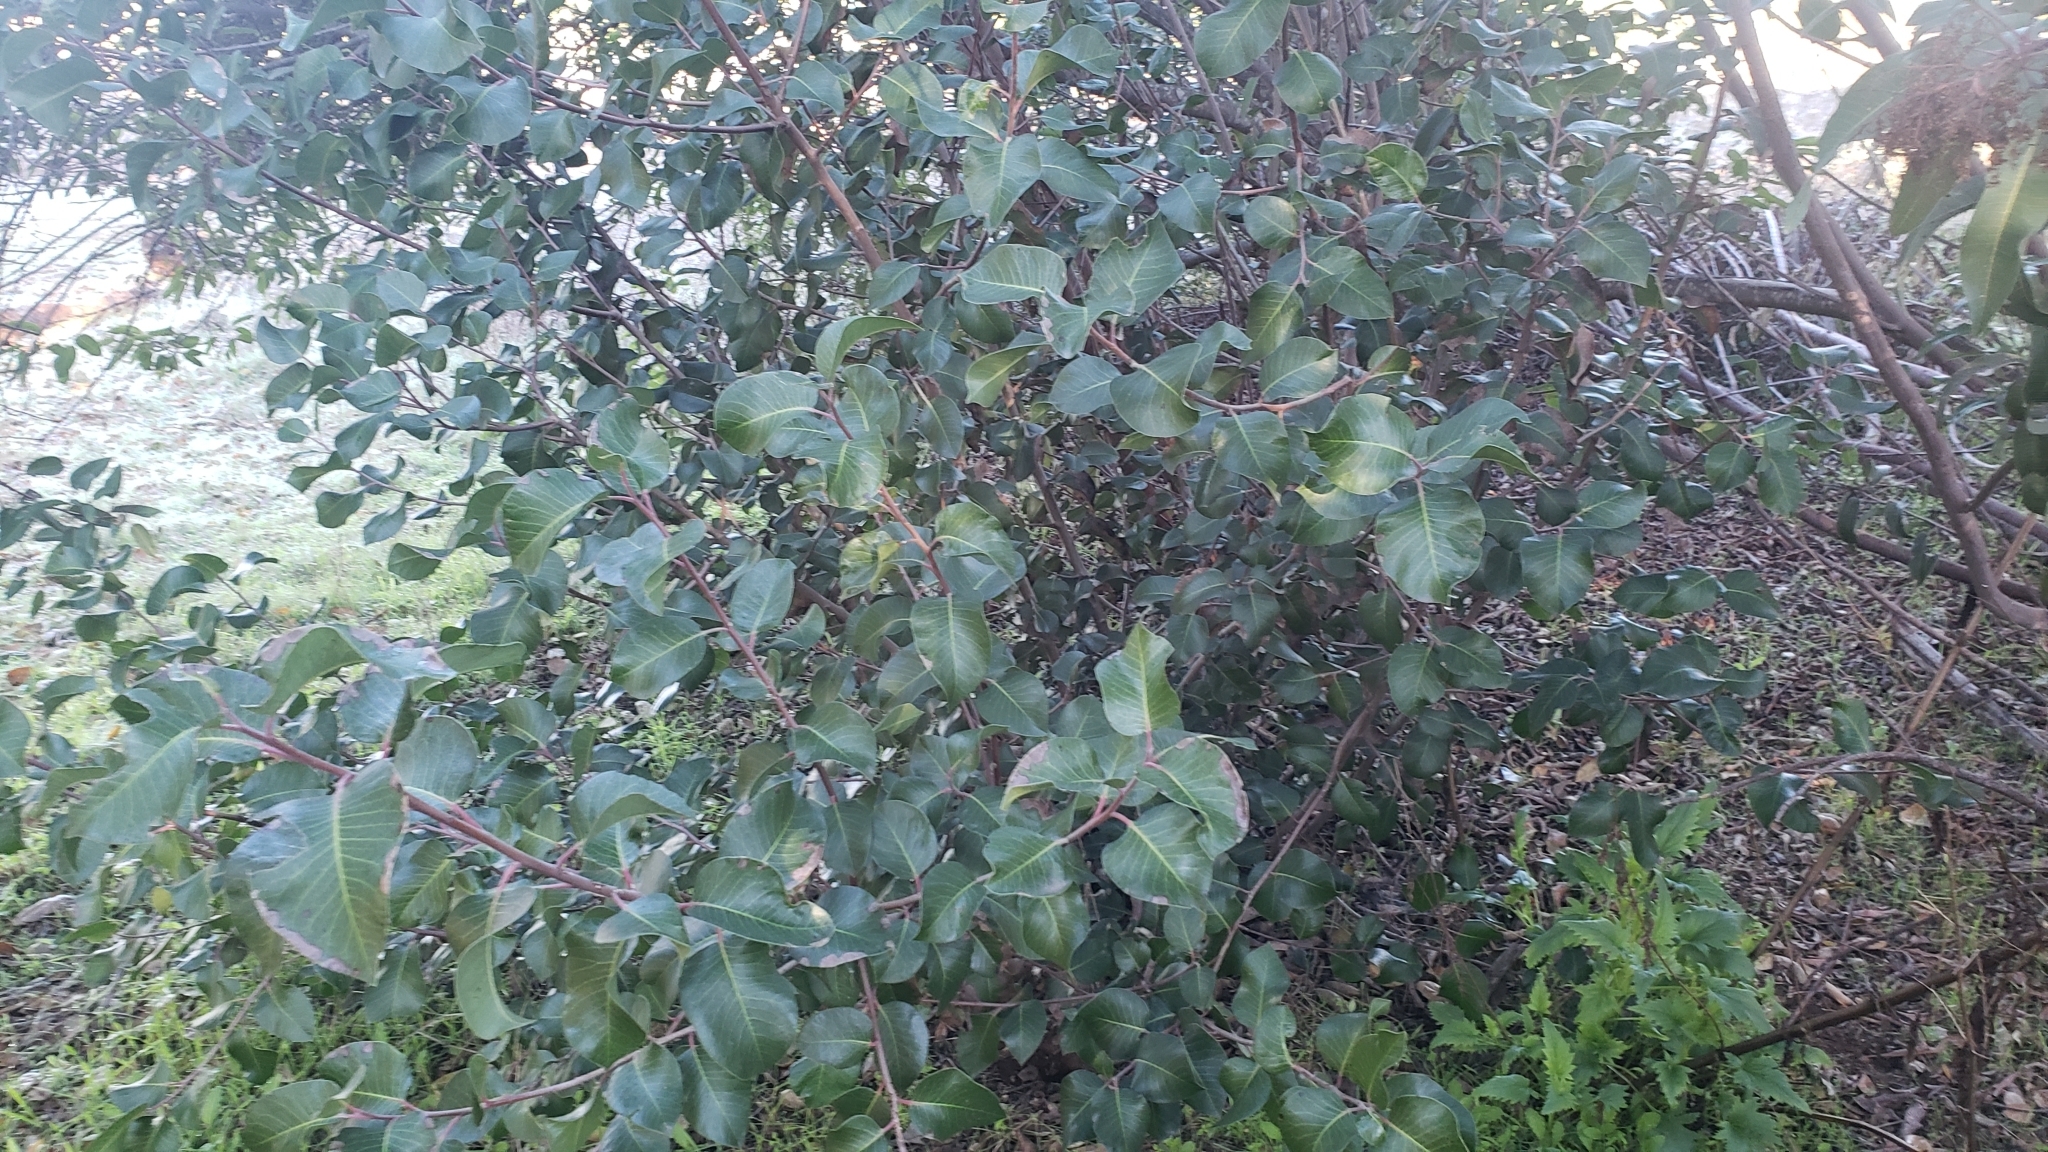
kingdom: Plantae
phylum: Tracheophyta
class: Magnoliopsida
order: Sapindales
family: Anacardiaceae
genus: Rhus
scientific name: Rhus ovata
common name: Sugar sumac
